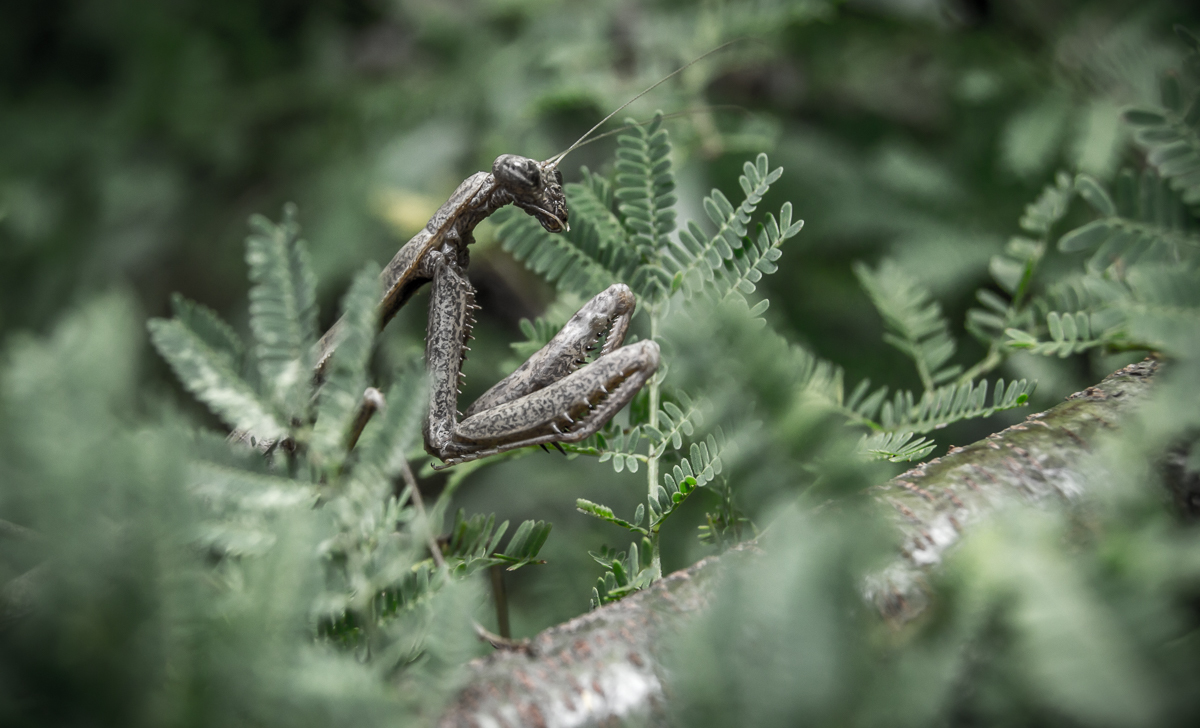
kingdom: Animalia
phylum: Arthropoda
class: Insecta
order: Mantodea
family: Coptopterygidae
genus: Coptopteryx
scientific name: Coptopteryx gayi
